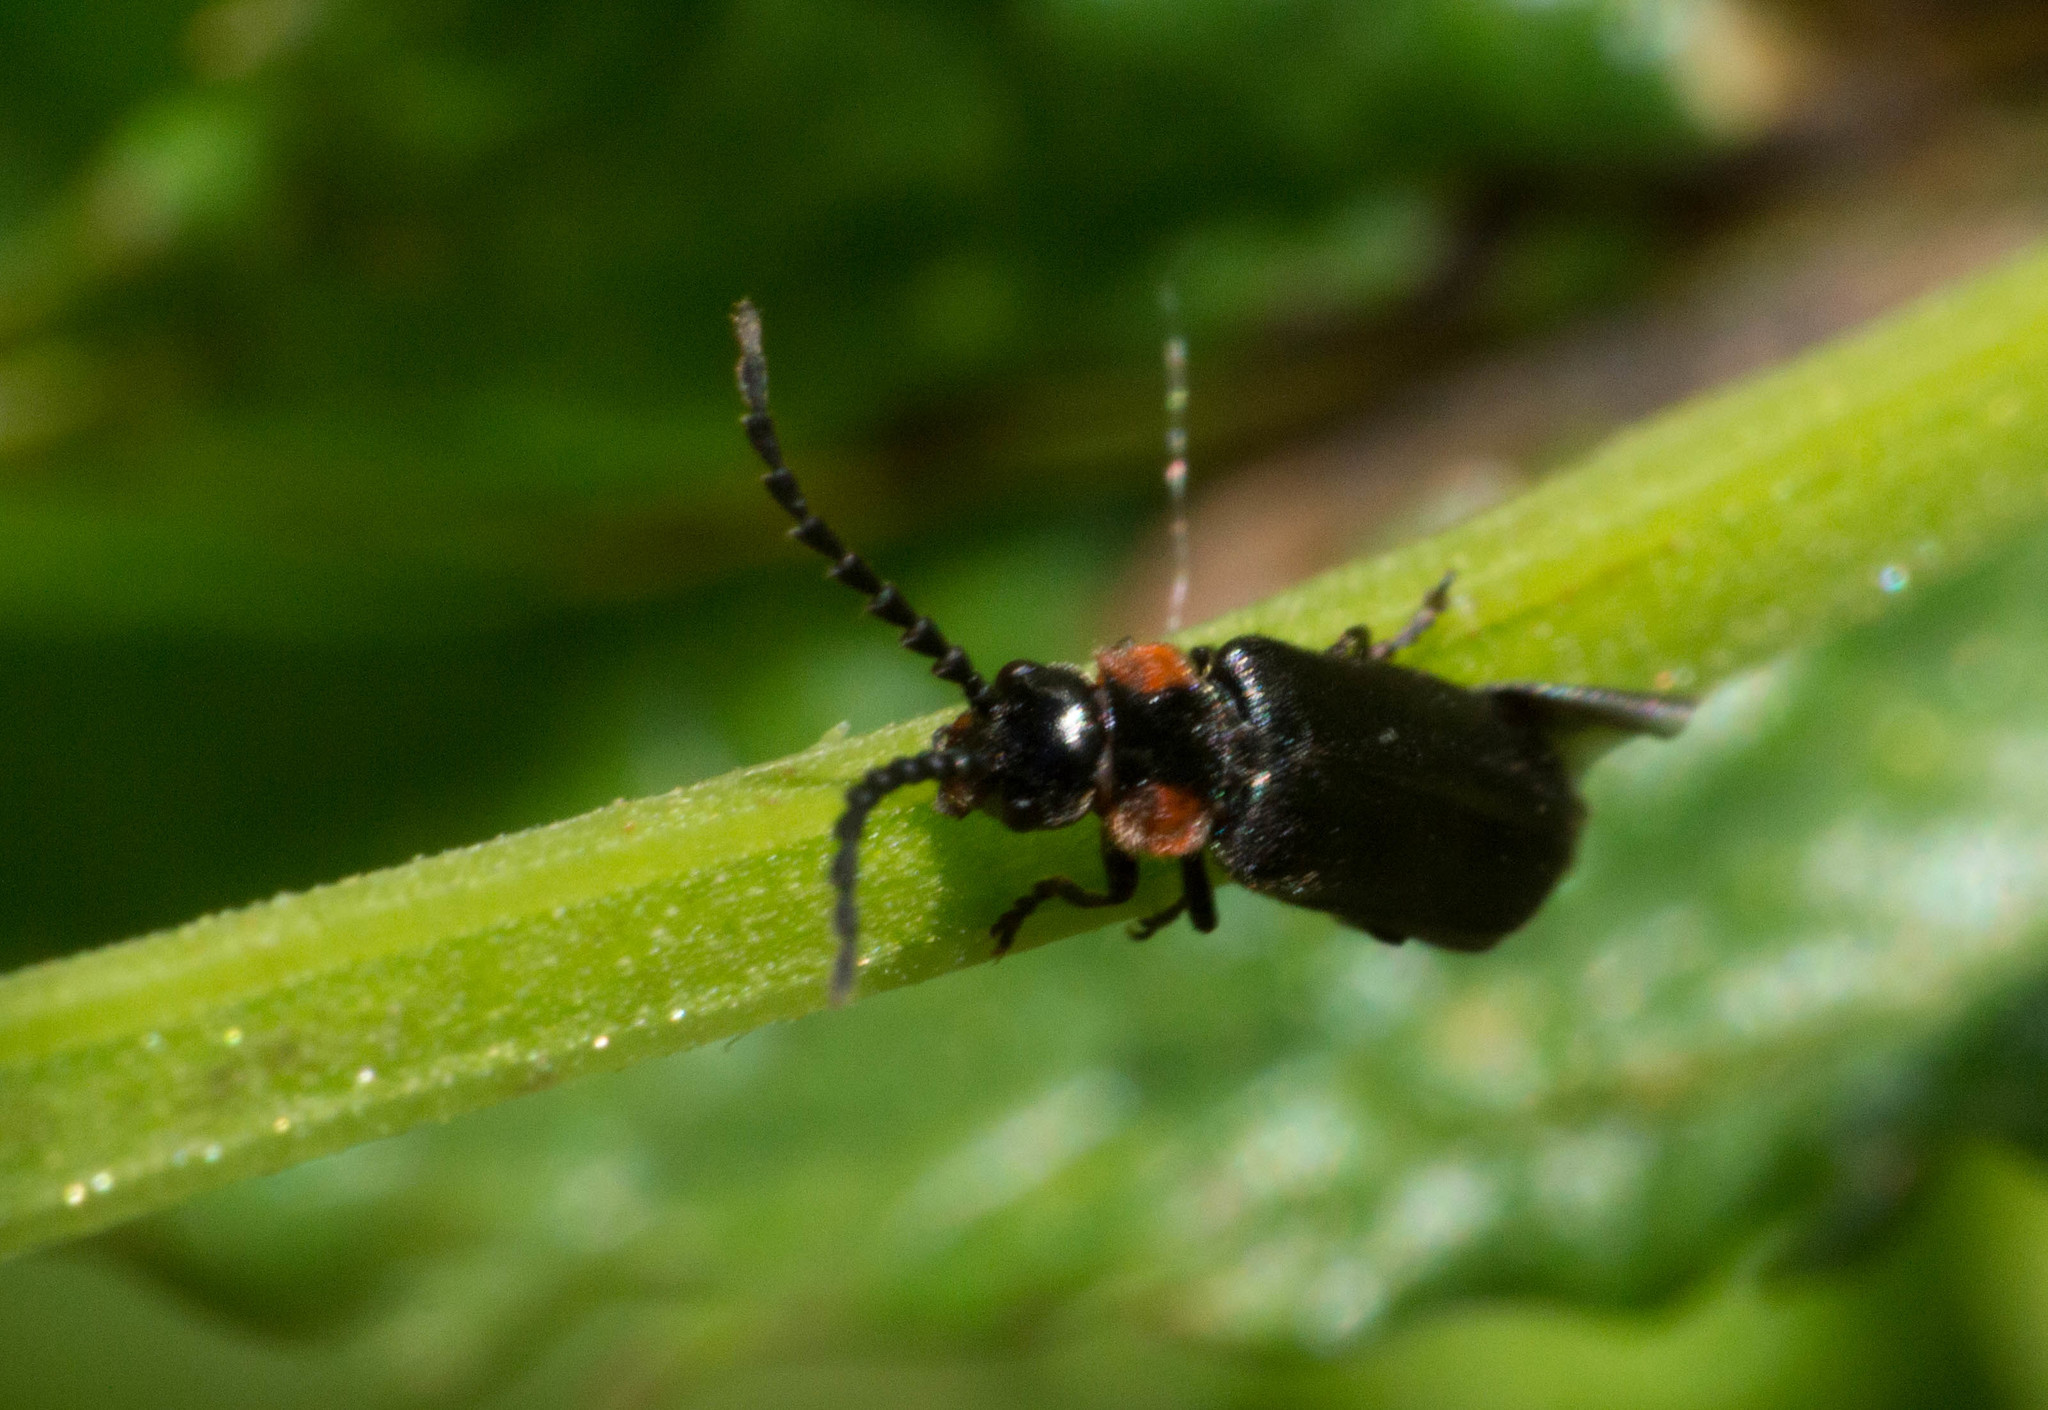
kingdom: Animalia
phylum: Arthropoda
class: Insecta
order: Coleoptera
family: Cantharidae
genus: Polemius
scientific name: Polemius
